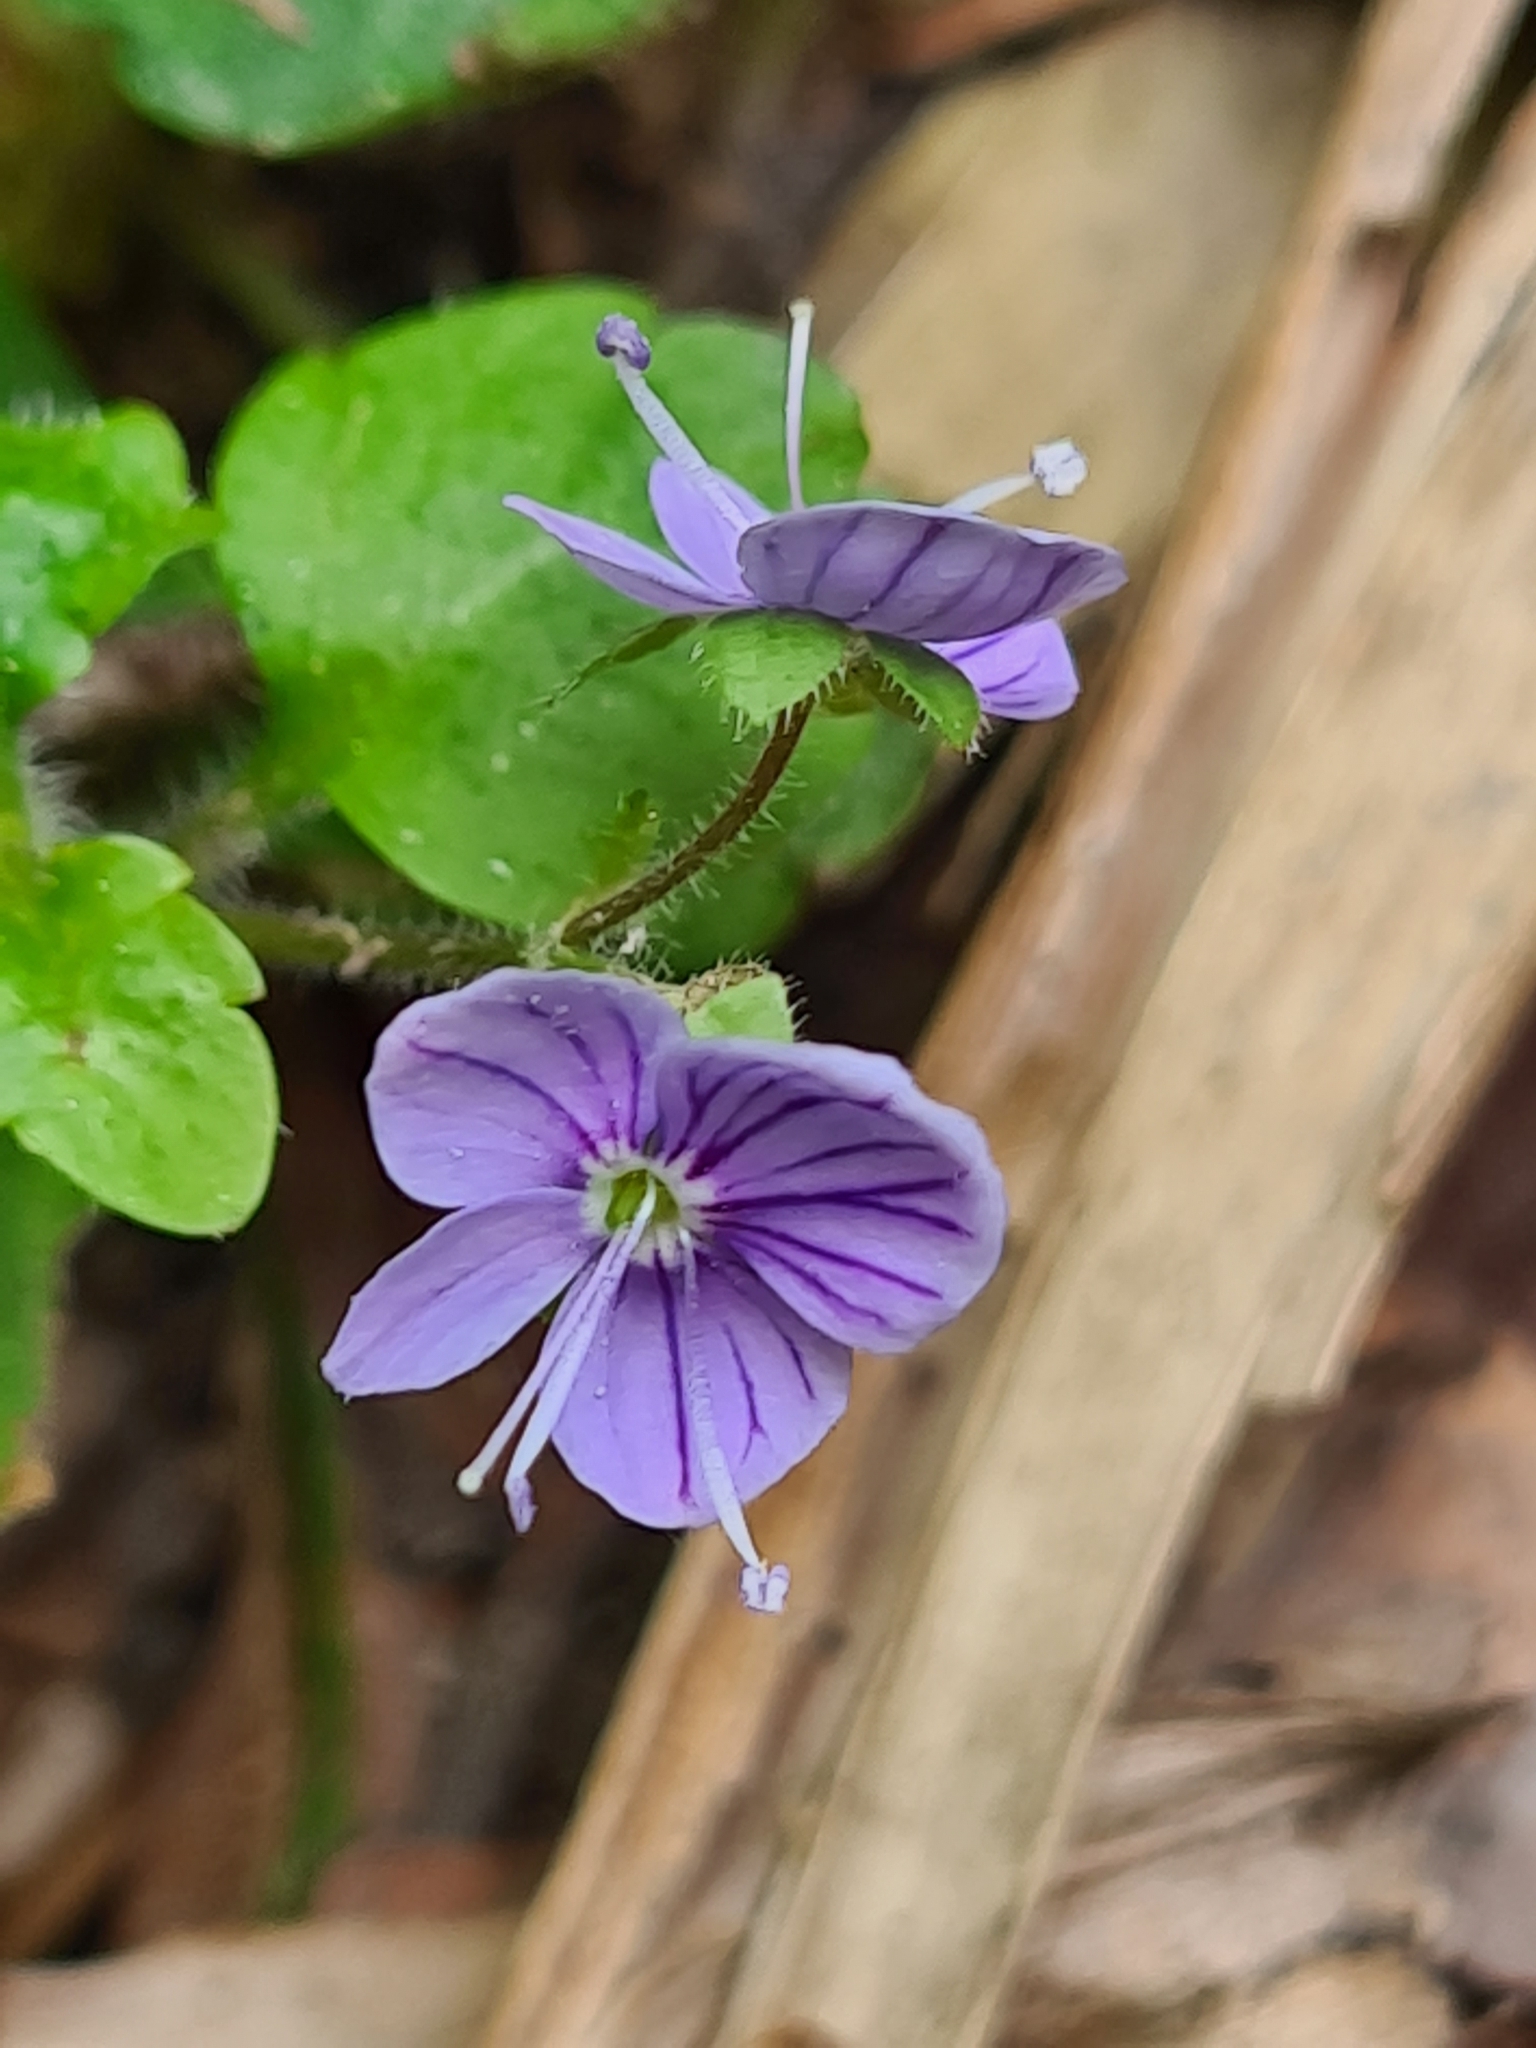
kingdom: Plantae
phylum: Tracheophyta
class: Magnoliopsida
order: Lamiales
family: Plantaginaceae
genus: Veronica
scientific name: Veronica montana
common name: Wood speedwell
